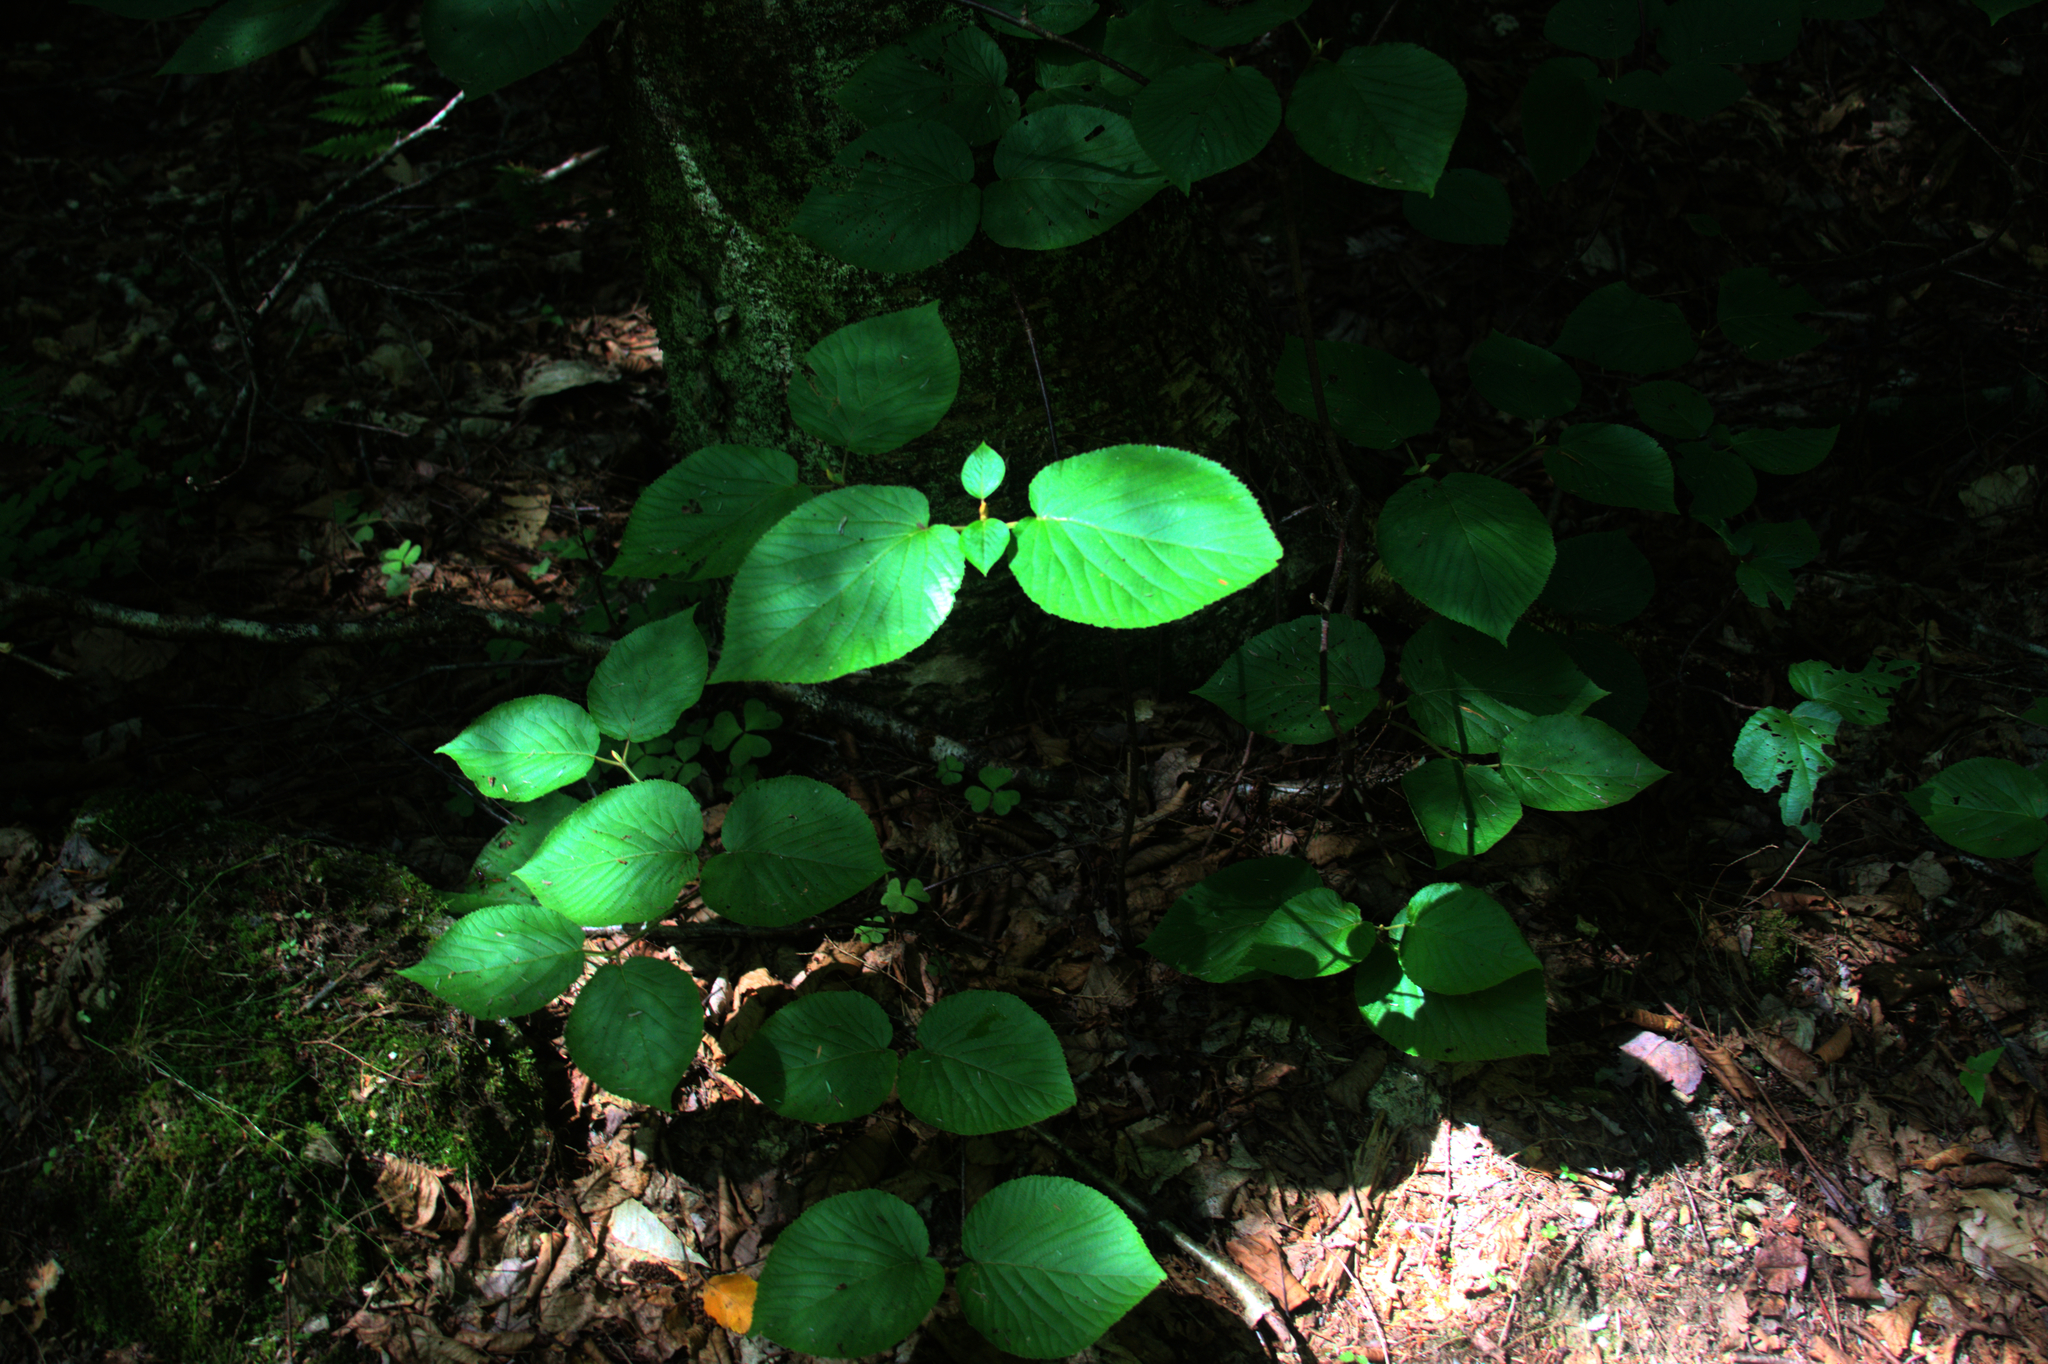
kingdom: Plantae
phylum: Tracheophyta
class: Magnoliopsida
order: Dipsacales
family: Viburnaceae
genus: Viburnum
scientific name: Viburnum lantanoides
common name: Hobblebush
